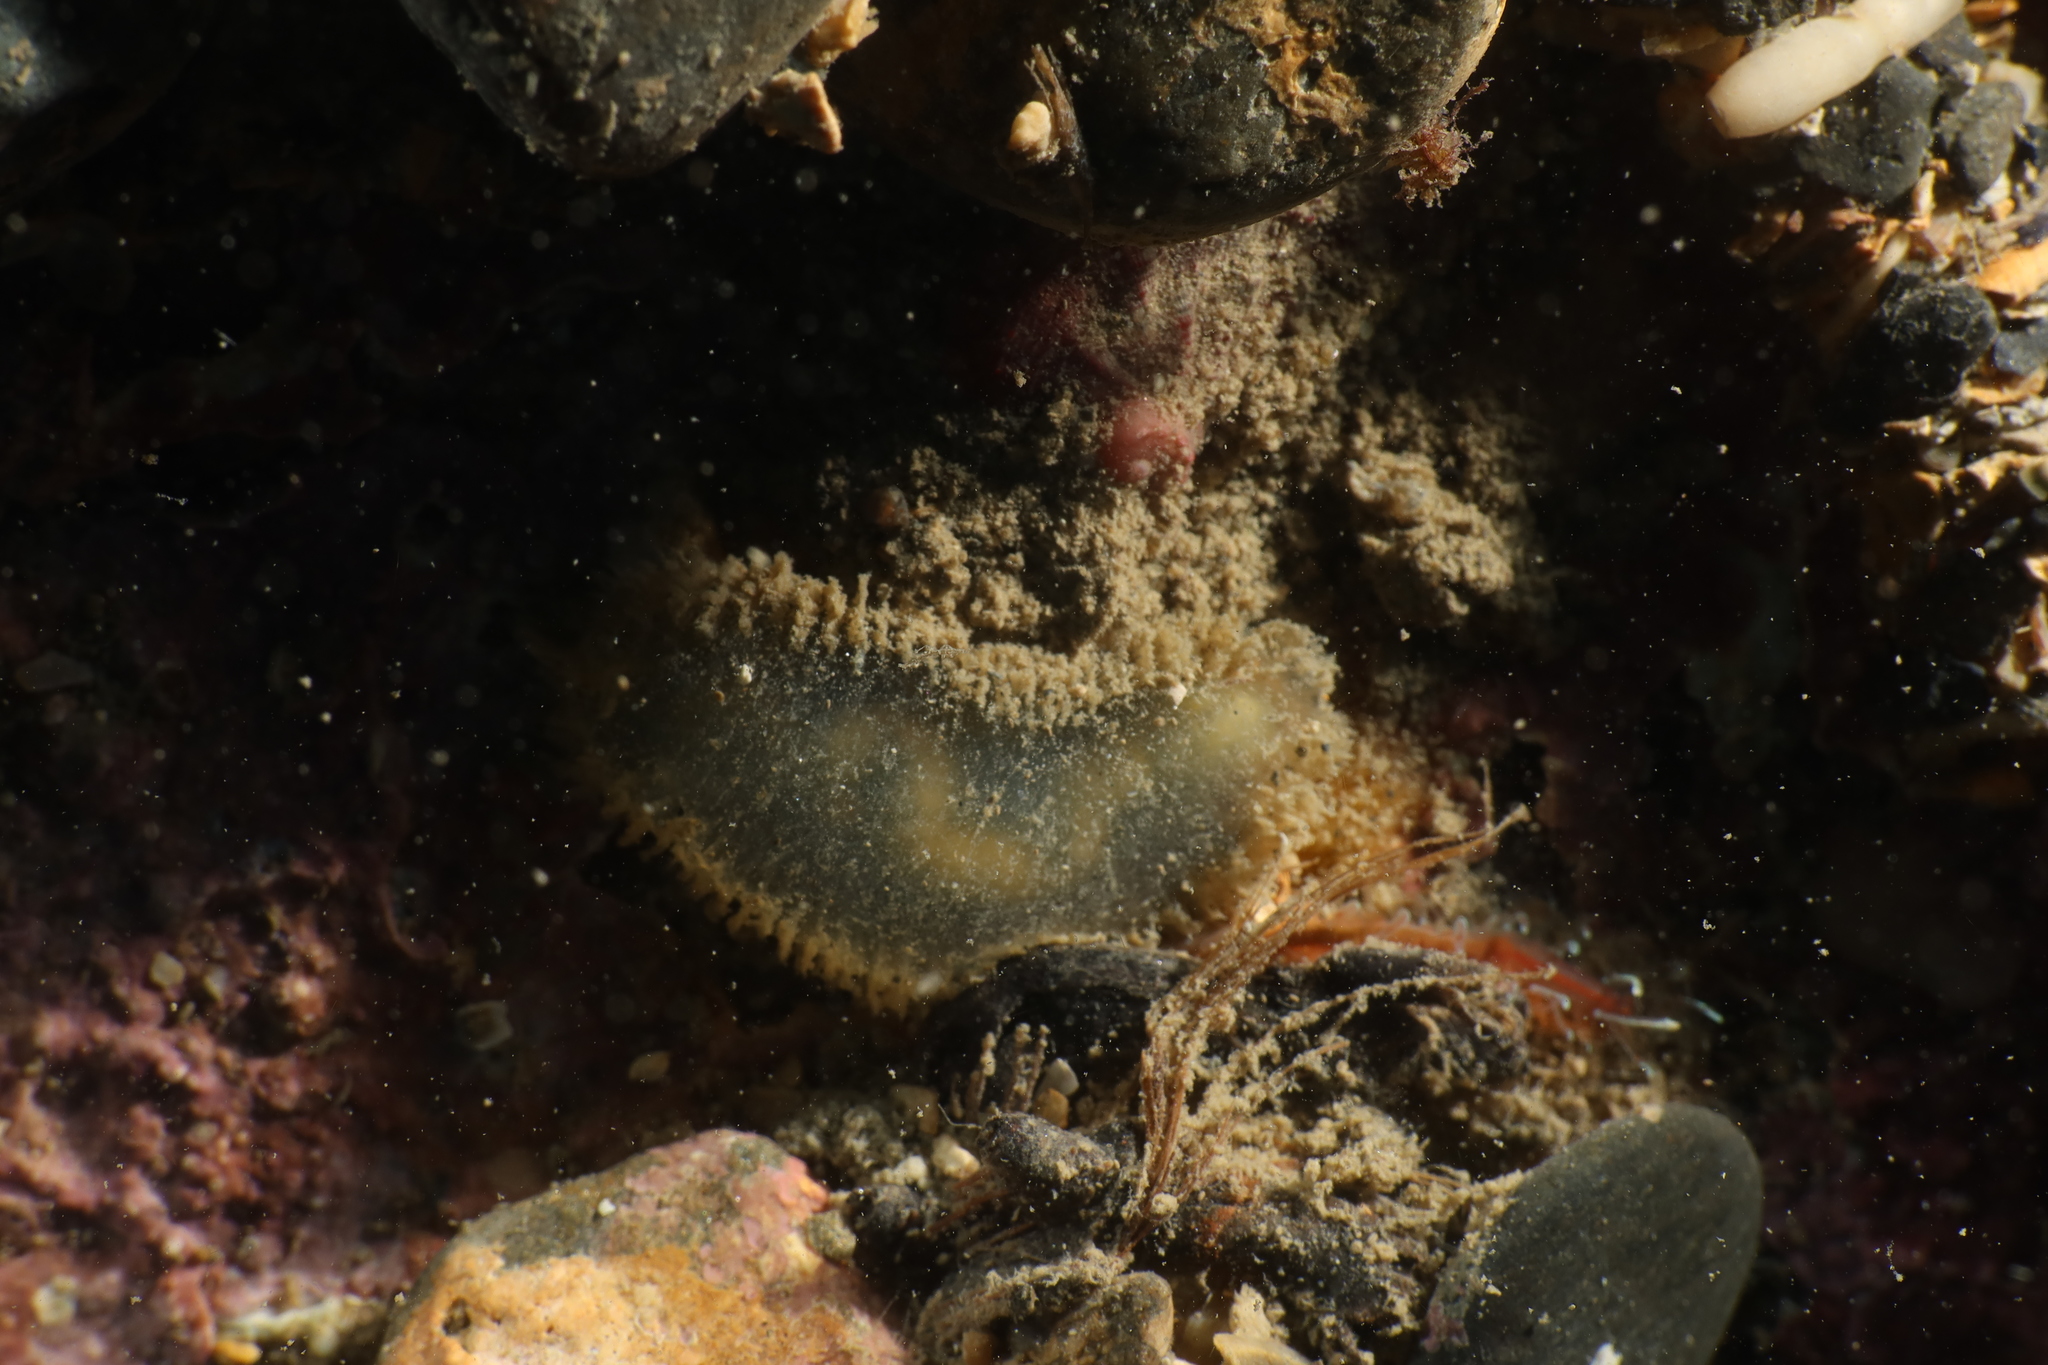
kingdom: Animalia
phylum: Annelida
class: Polychaeta
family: Flabelligeridae
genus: Flabelligera
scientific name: Flabelligera affinis
